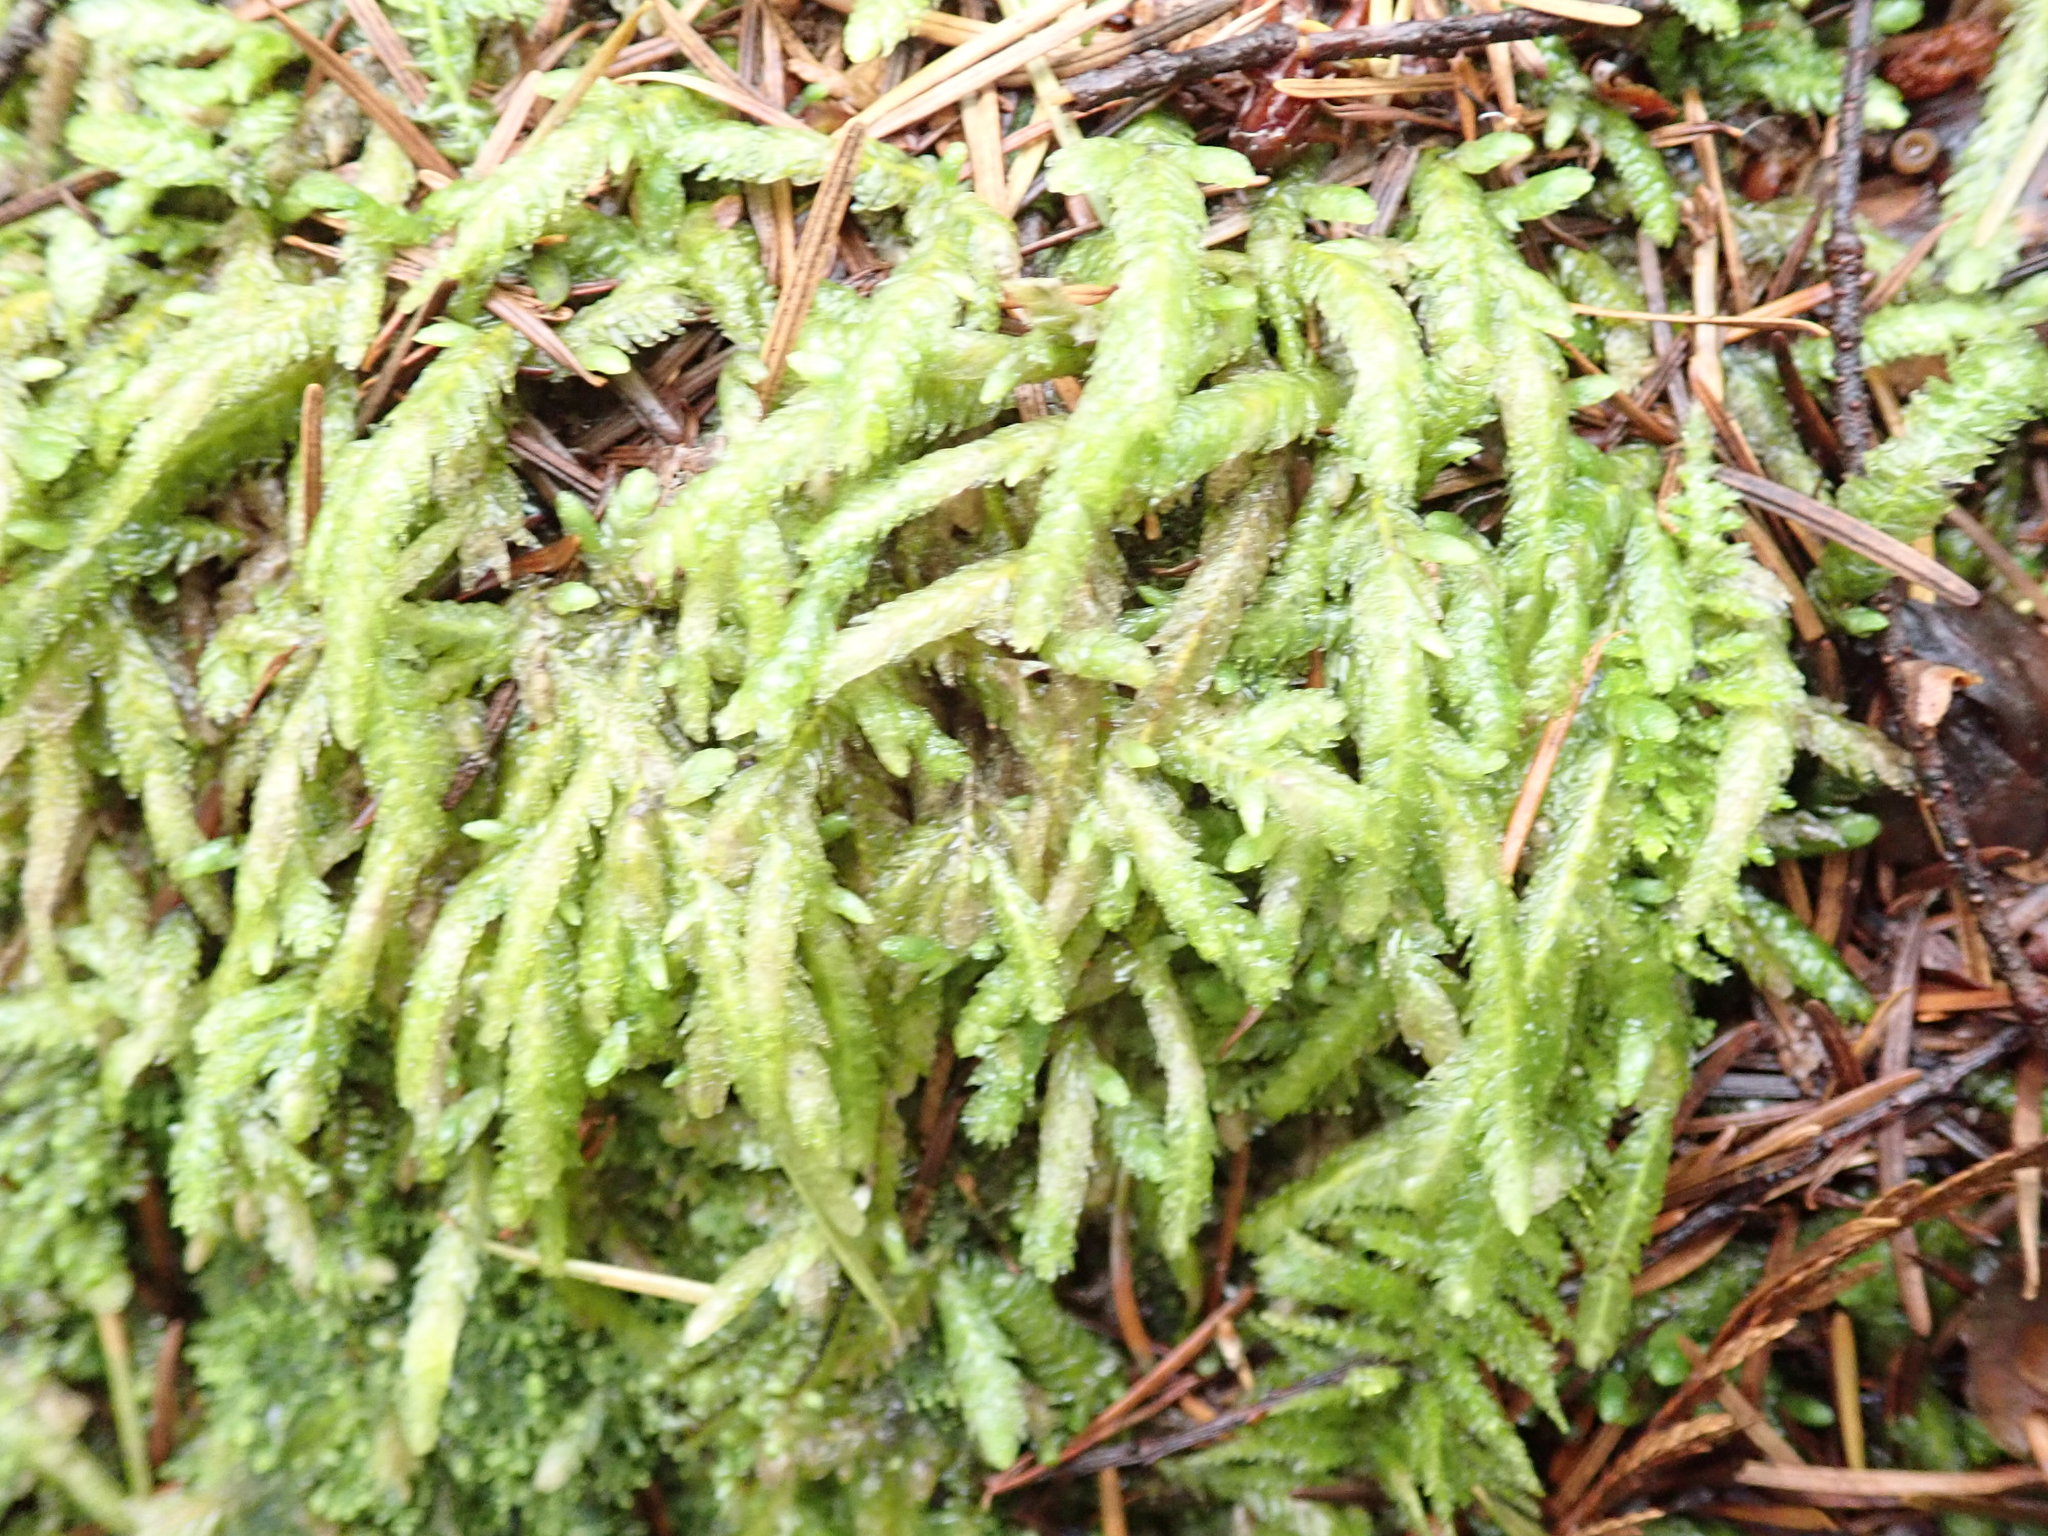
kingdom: Plantae
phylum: Bryophyta
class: Bryopsida
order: Hypnales
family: Plagiotheciaceae
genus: Plagiothecium
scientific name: Plagiothecium undulatum
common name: Waved silk-moss
